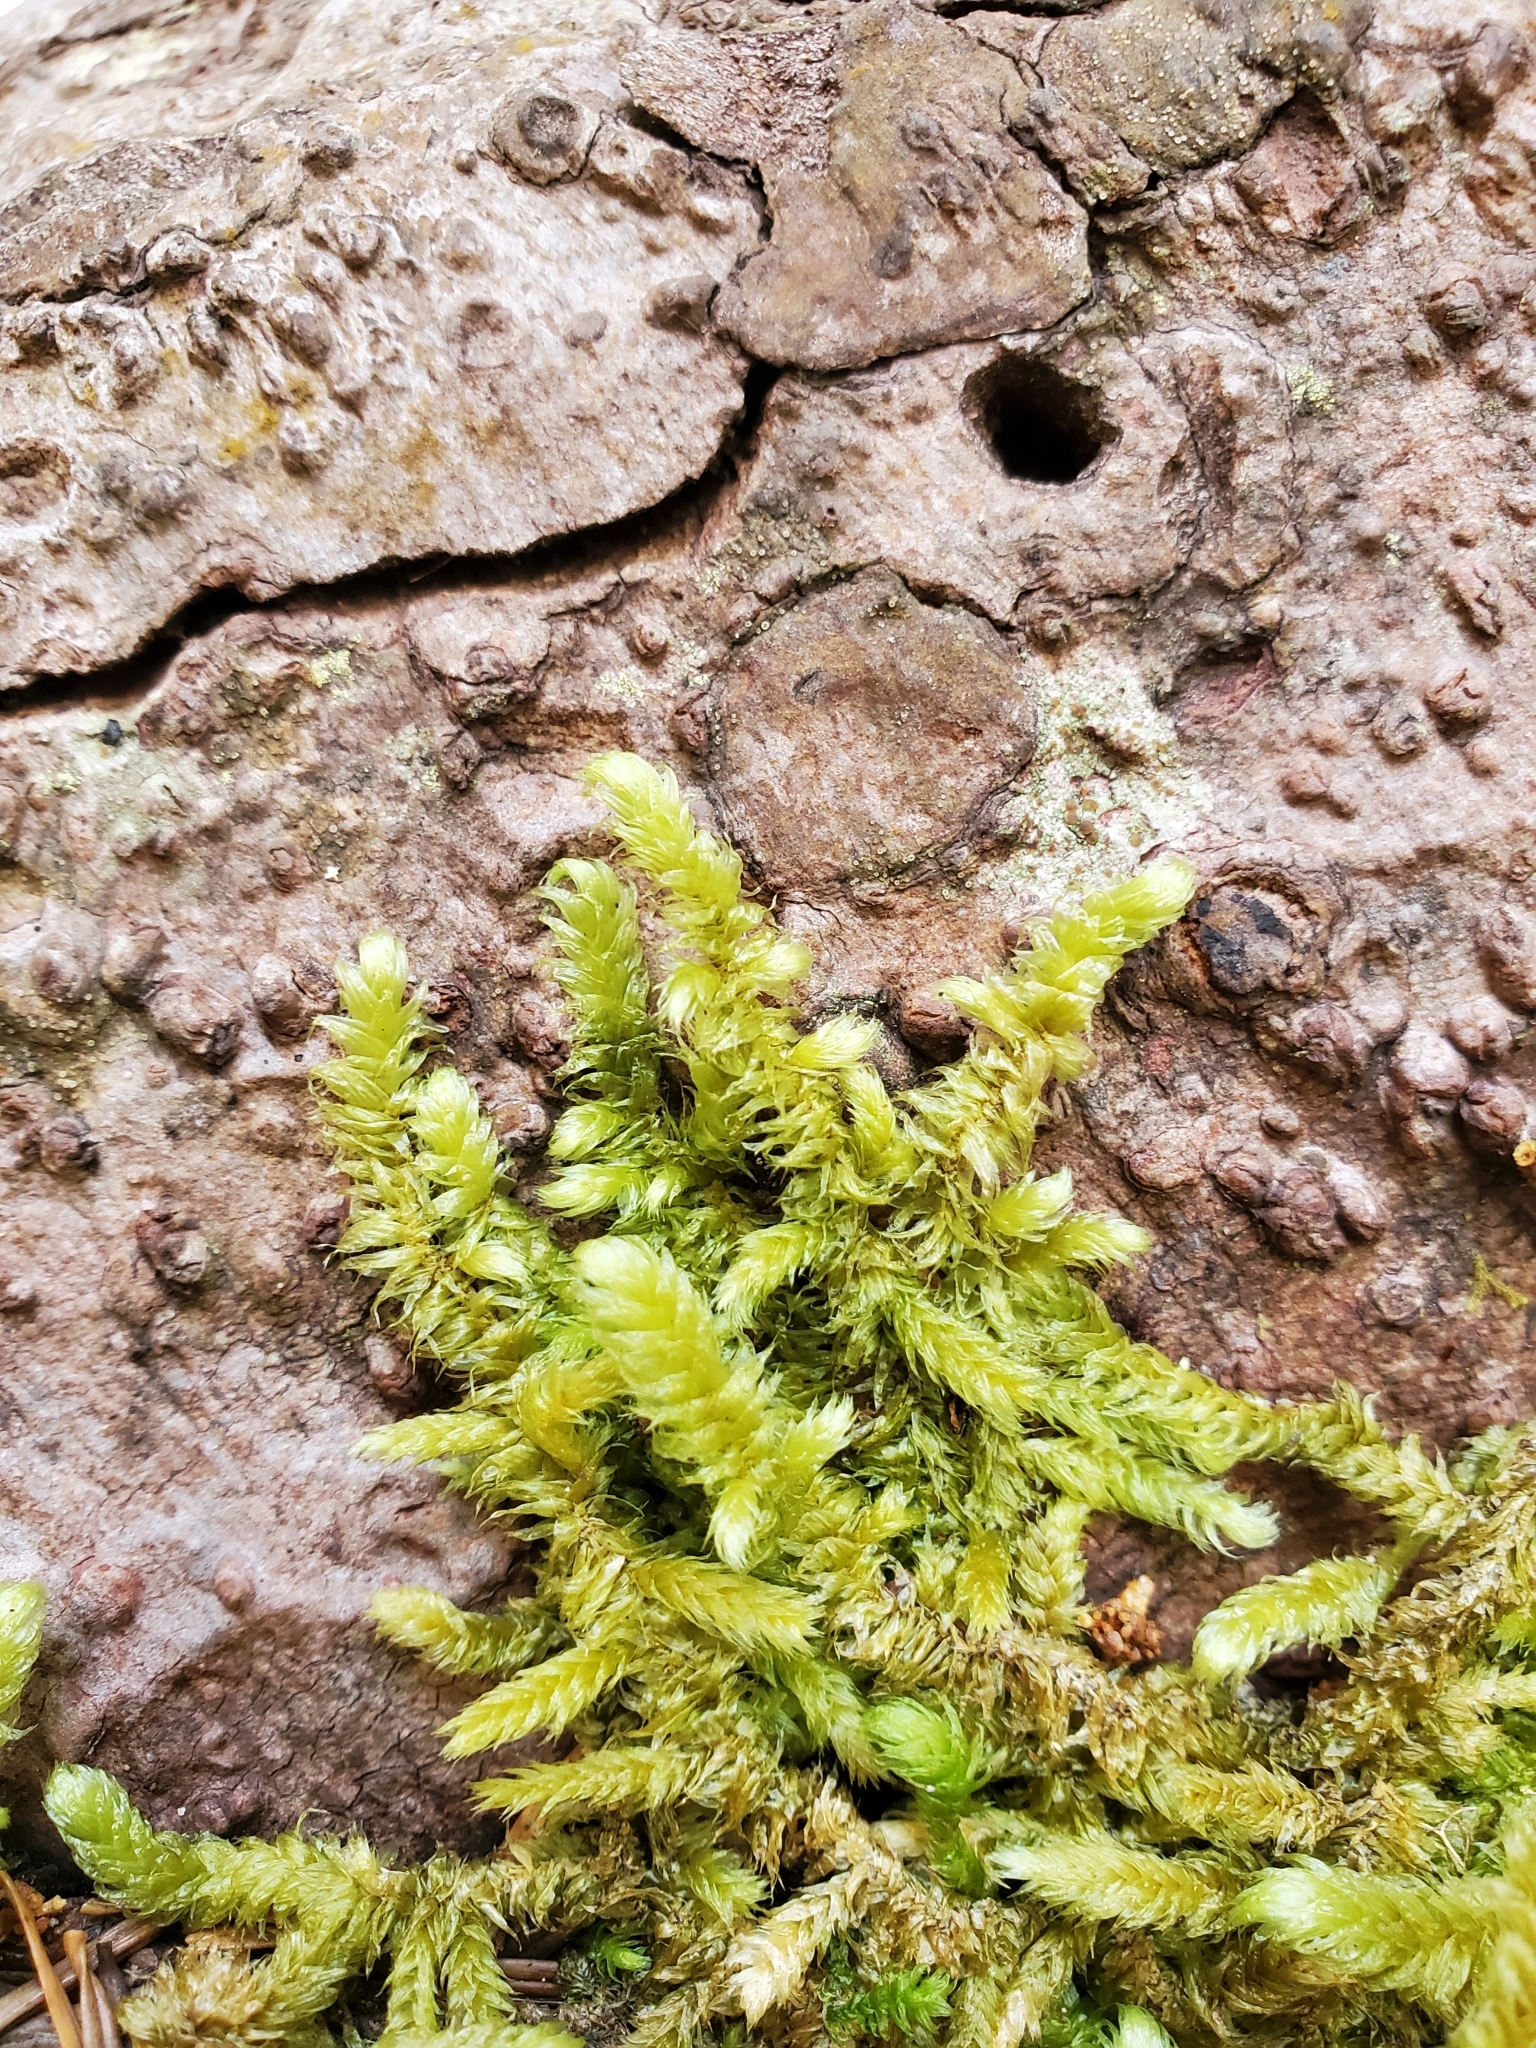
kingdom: Plantae
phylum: Bryophyta
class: Bryopsida
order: Hypnales
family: Hylocomiaceae
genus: Rhytidiopsis
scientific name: Rhytidiopsis robusta
